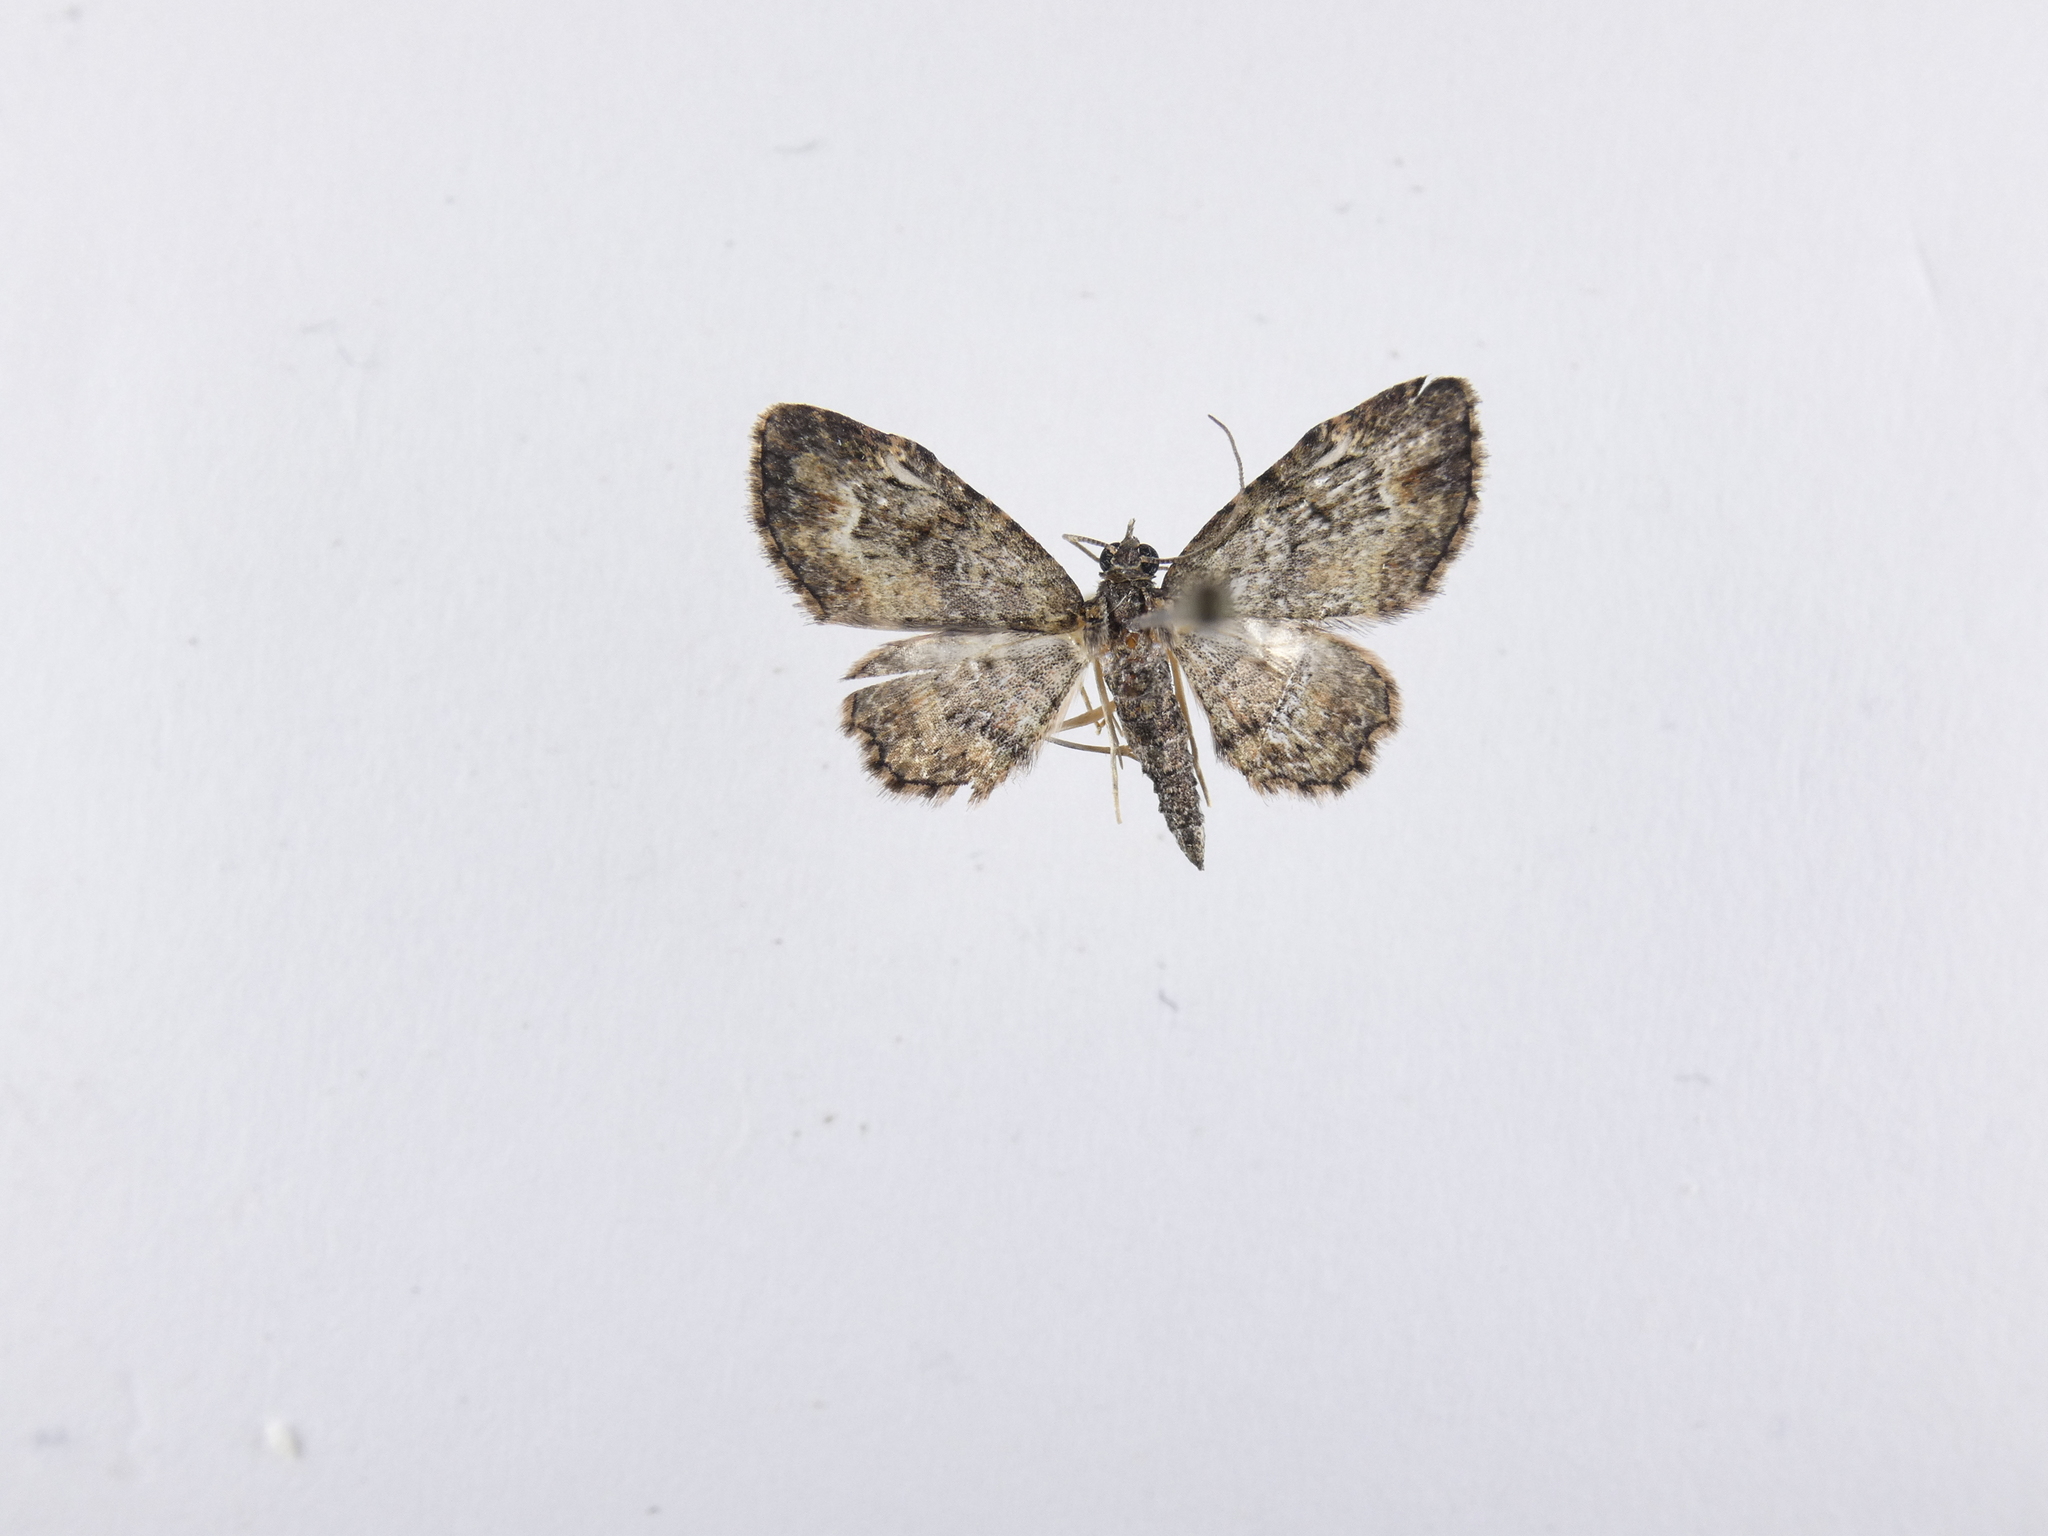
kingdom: Animalia
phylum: Arthropoda
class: Insecta
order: Lepidoptera
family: Geometridae
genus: Pasiphilodes
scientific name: Pasiphilodes testulata
